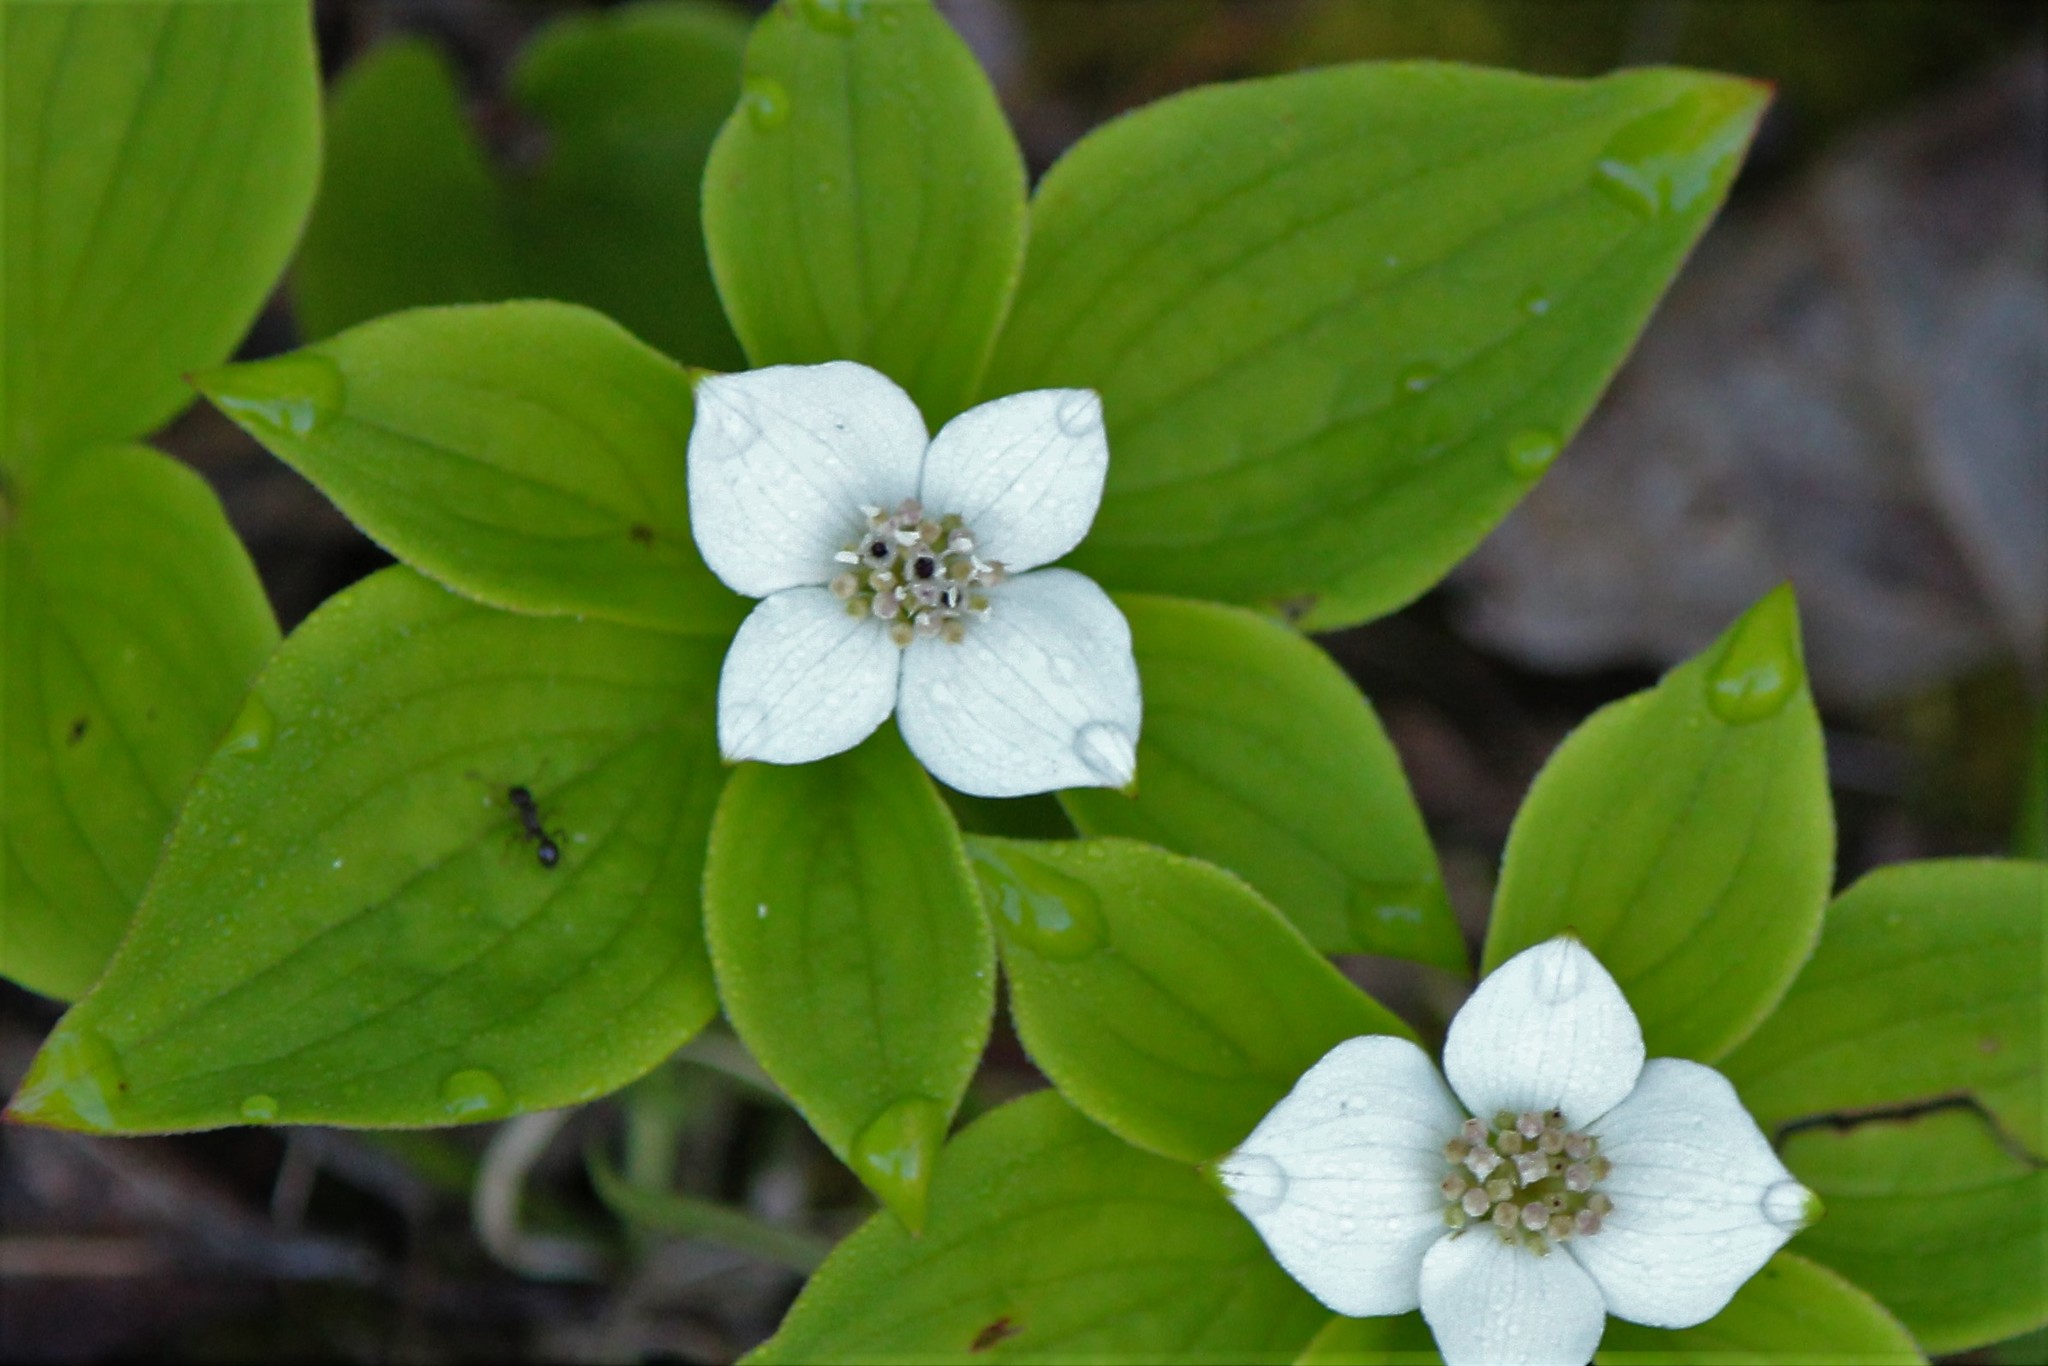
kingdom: Plantae
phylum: Tracheophyta
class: Magnoliopsida
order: Cornales
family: Cornaceae
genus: Cornus
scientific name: Cornus canadensis
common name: Creeping dogwood
